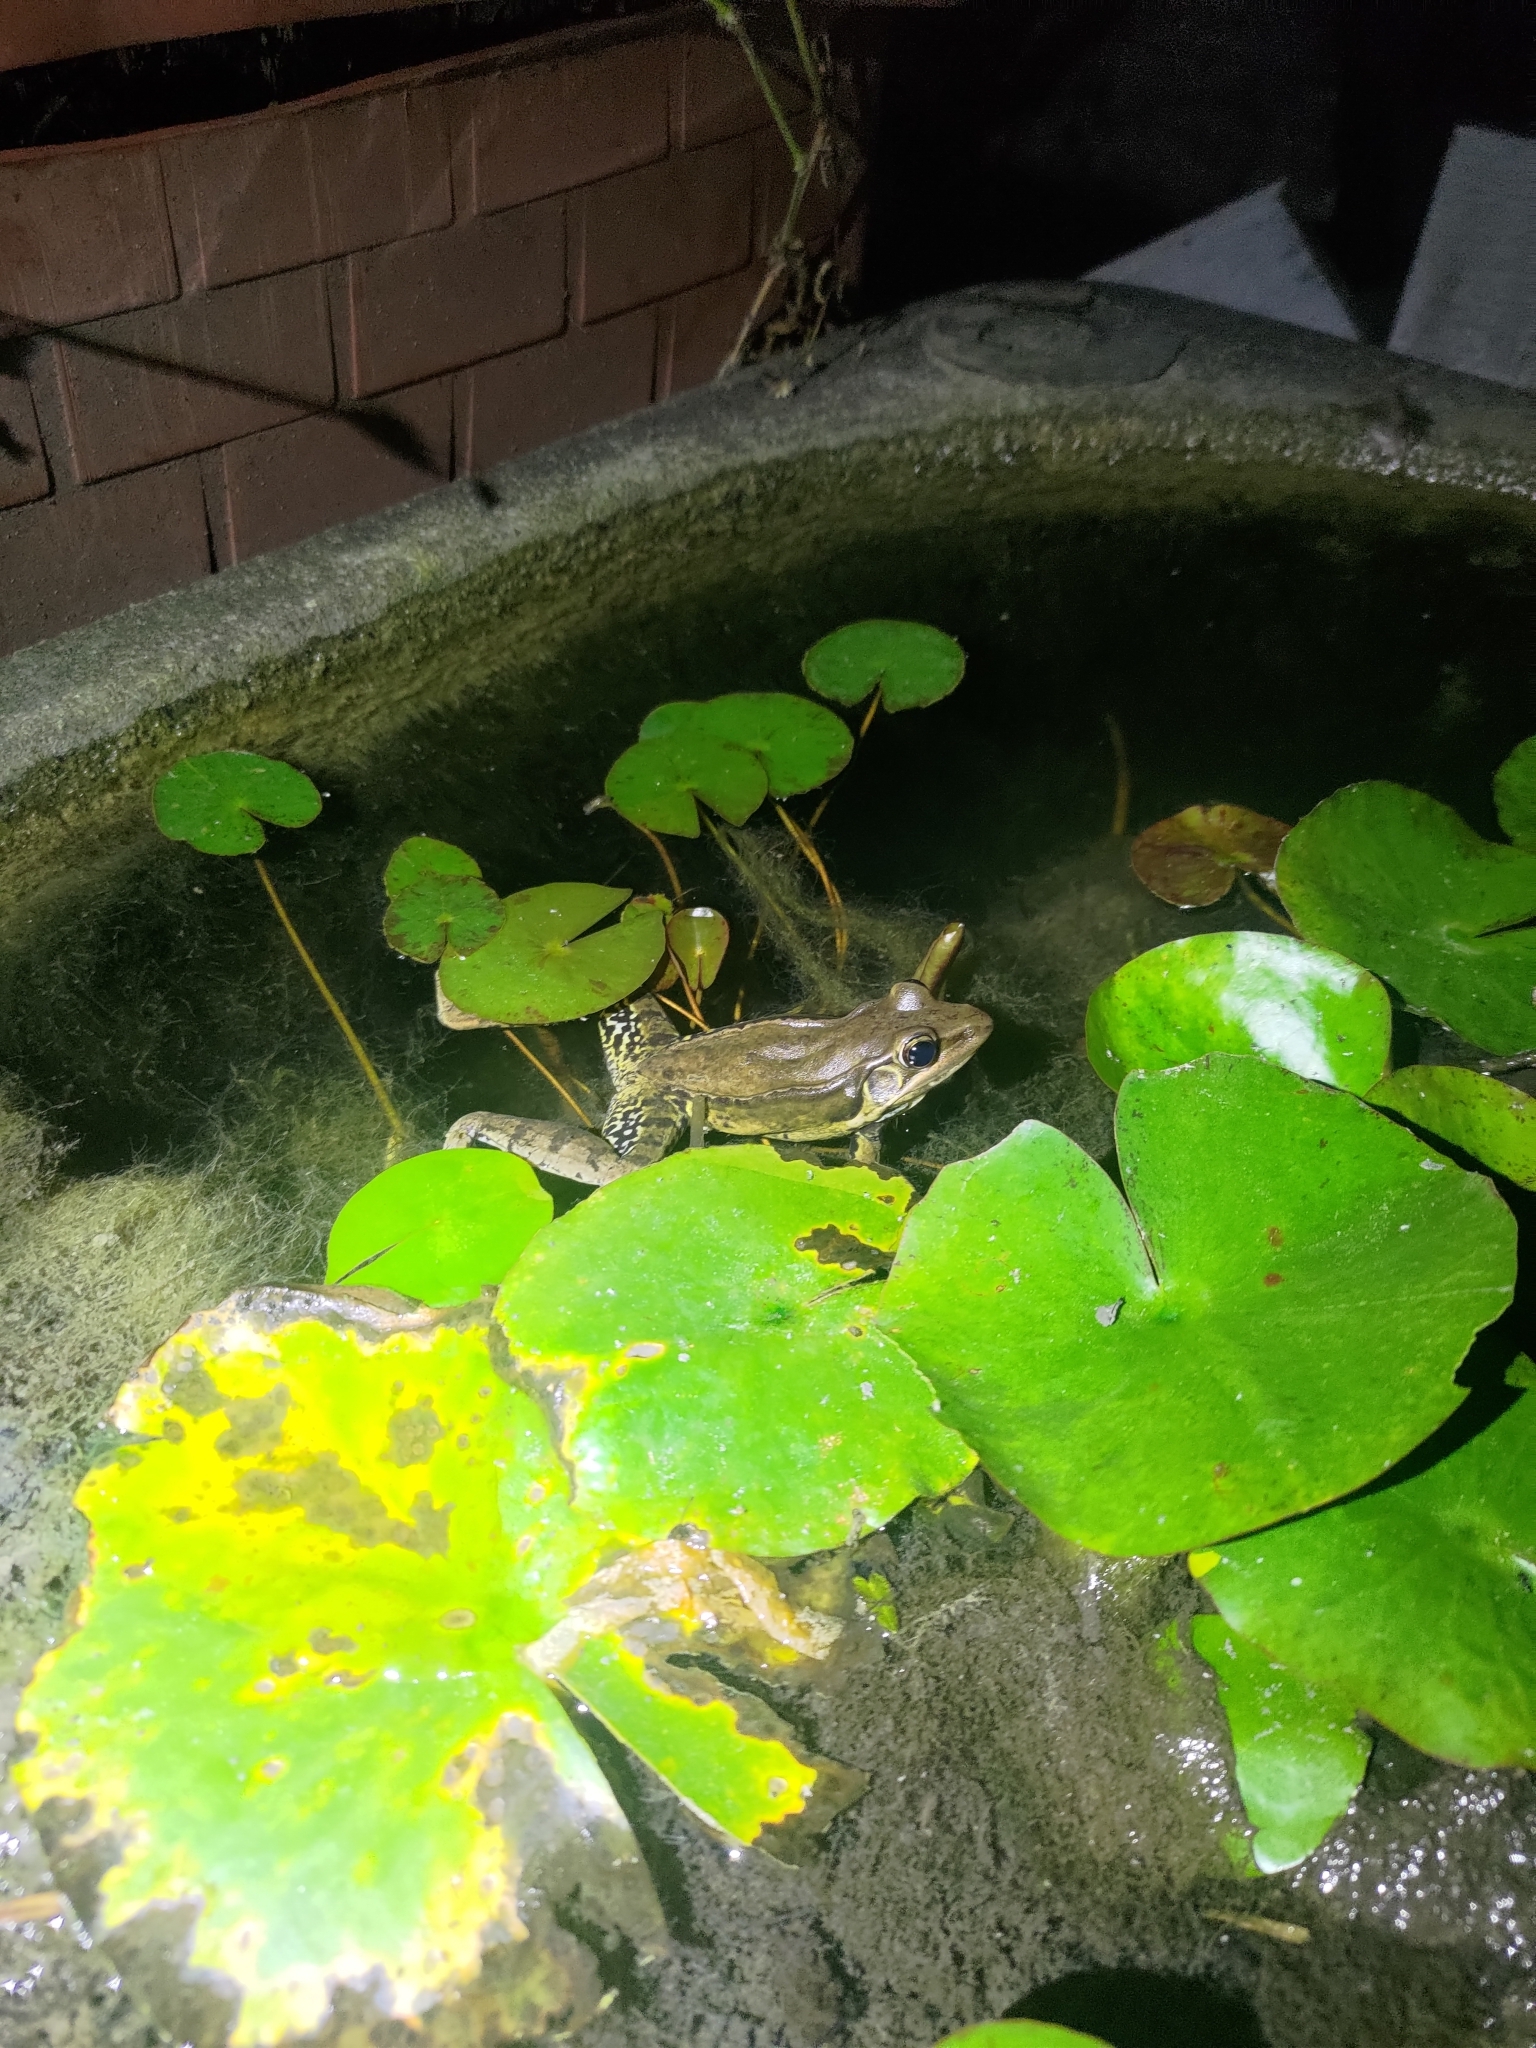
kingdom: Animalia
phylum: Chordata
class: Amphibia
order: Anura
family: Ranidae
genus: Sylvirana
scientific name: Sylvirana guentheri
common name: Guenther's amoy frog
